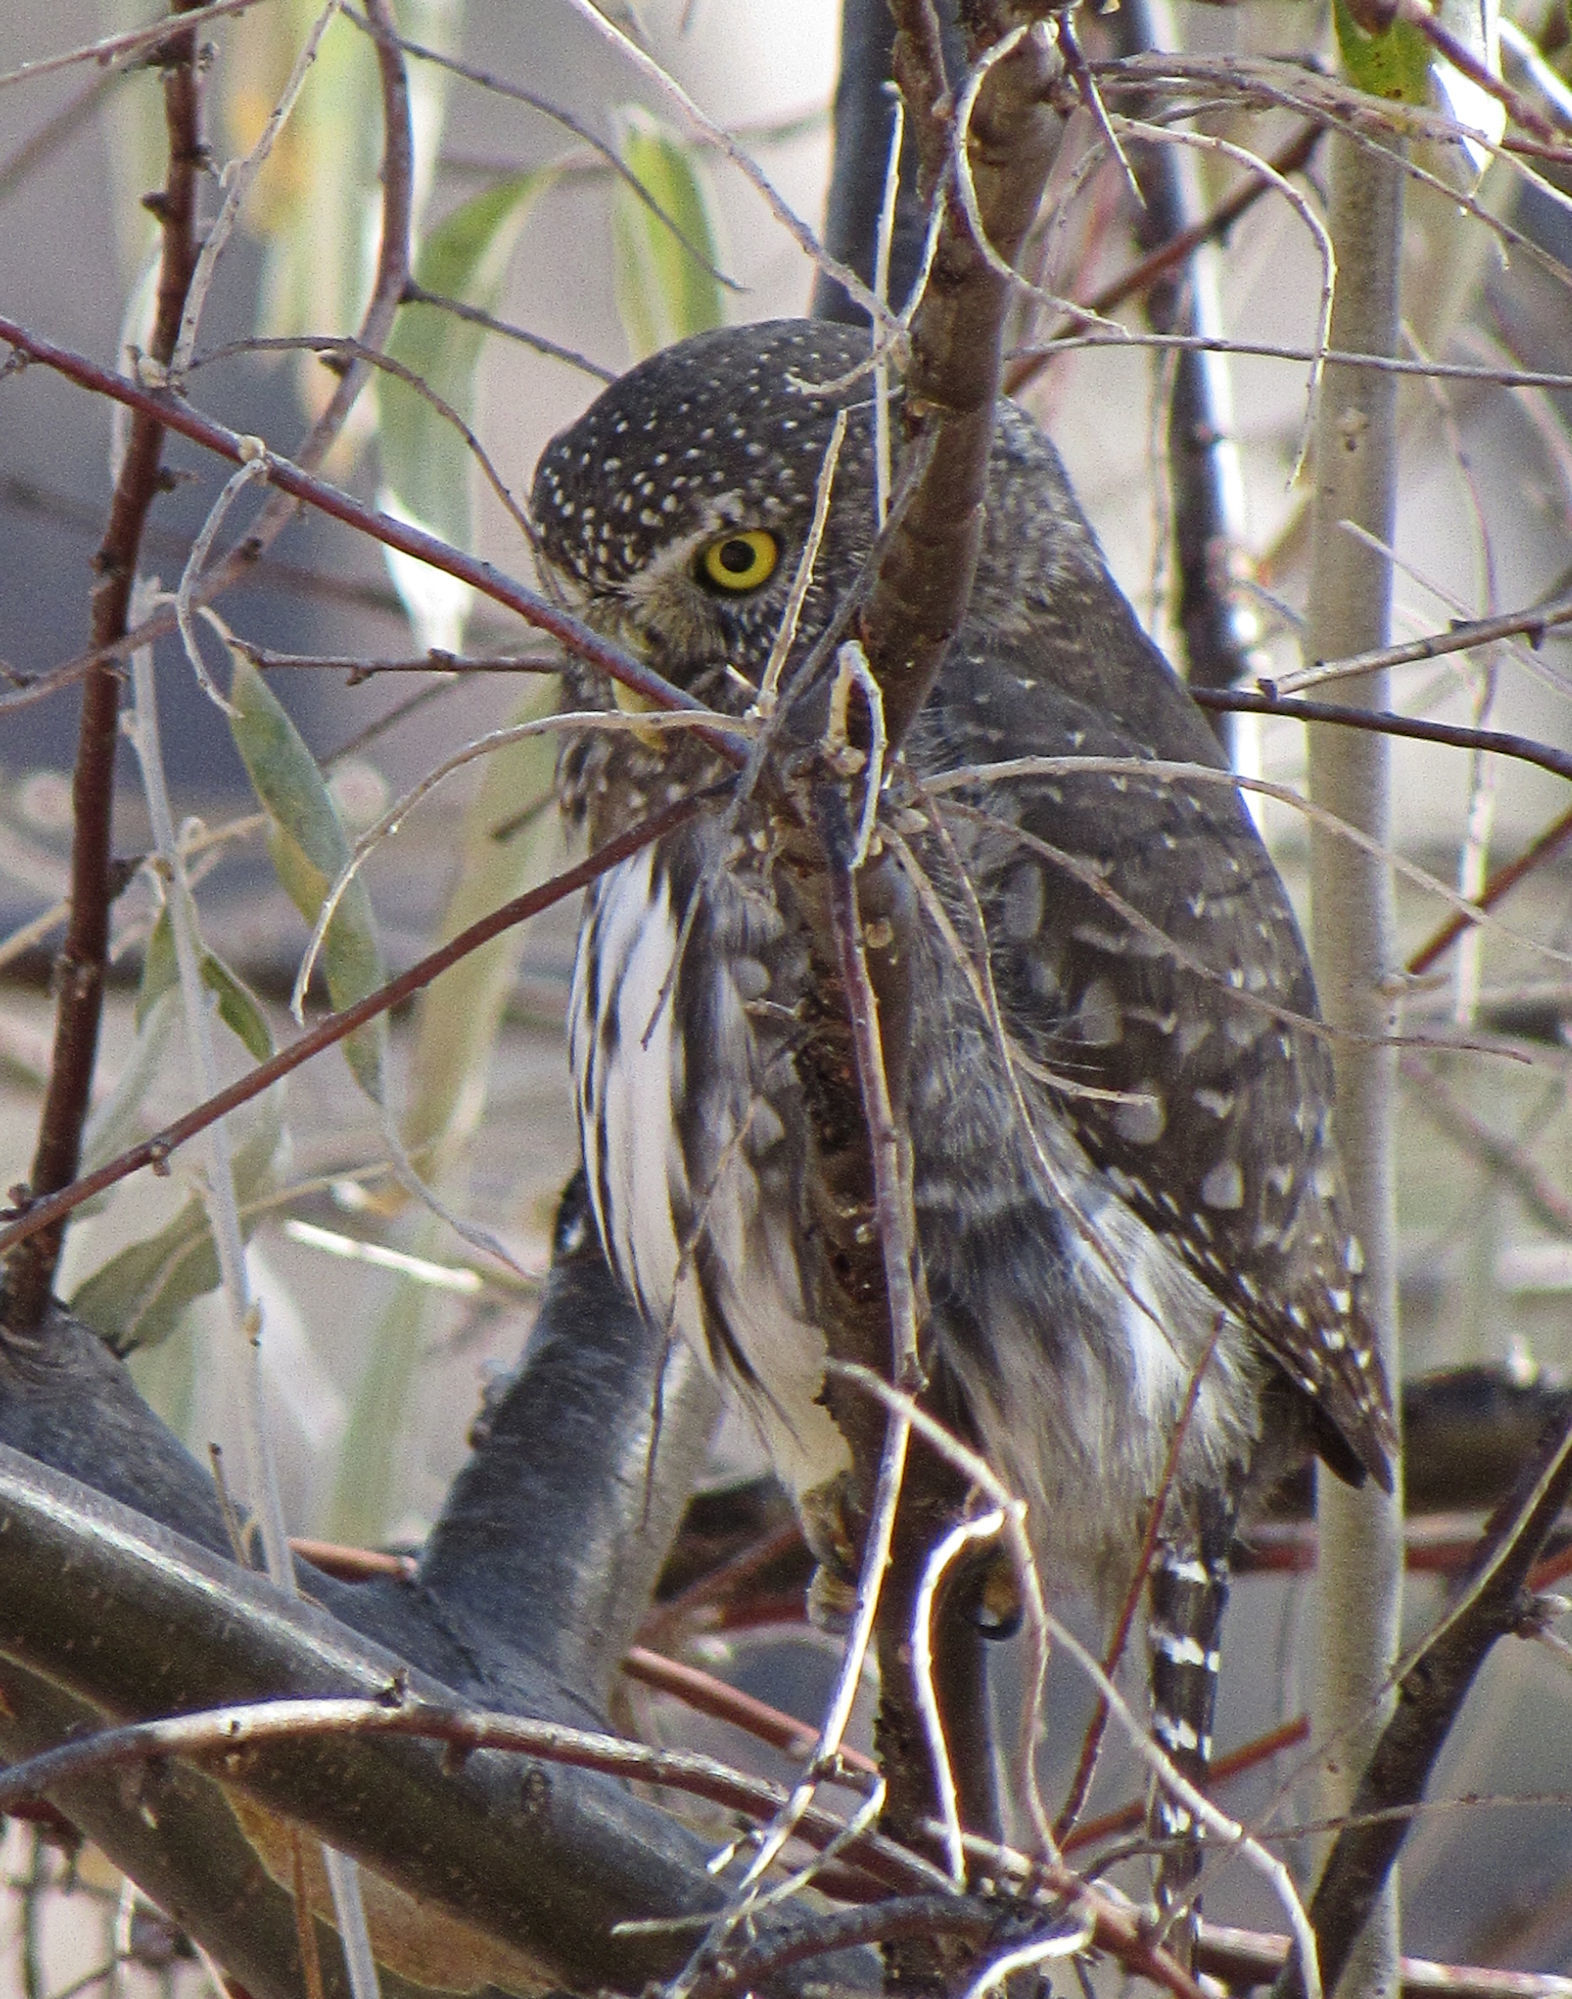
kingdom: Animalia
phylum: Chordata
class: Aves
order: Strigiformes
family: Strigidae
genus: Glaucidium
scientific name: Glaucidium gnoma
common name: Northern pygmy-owl
